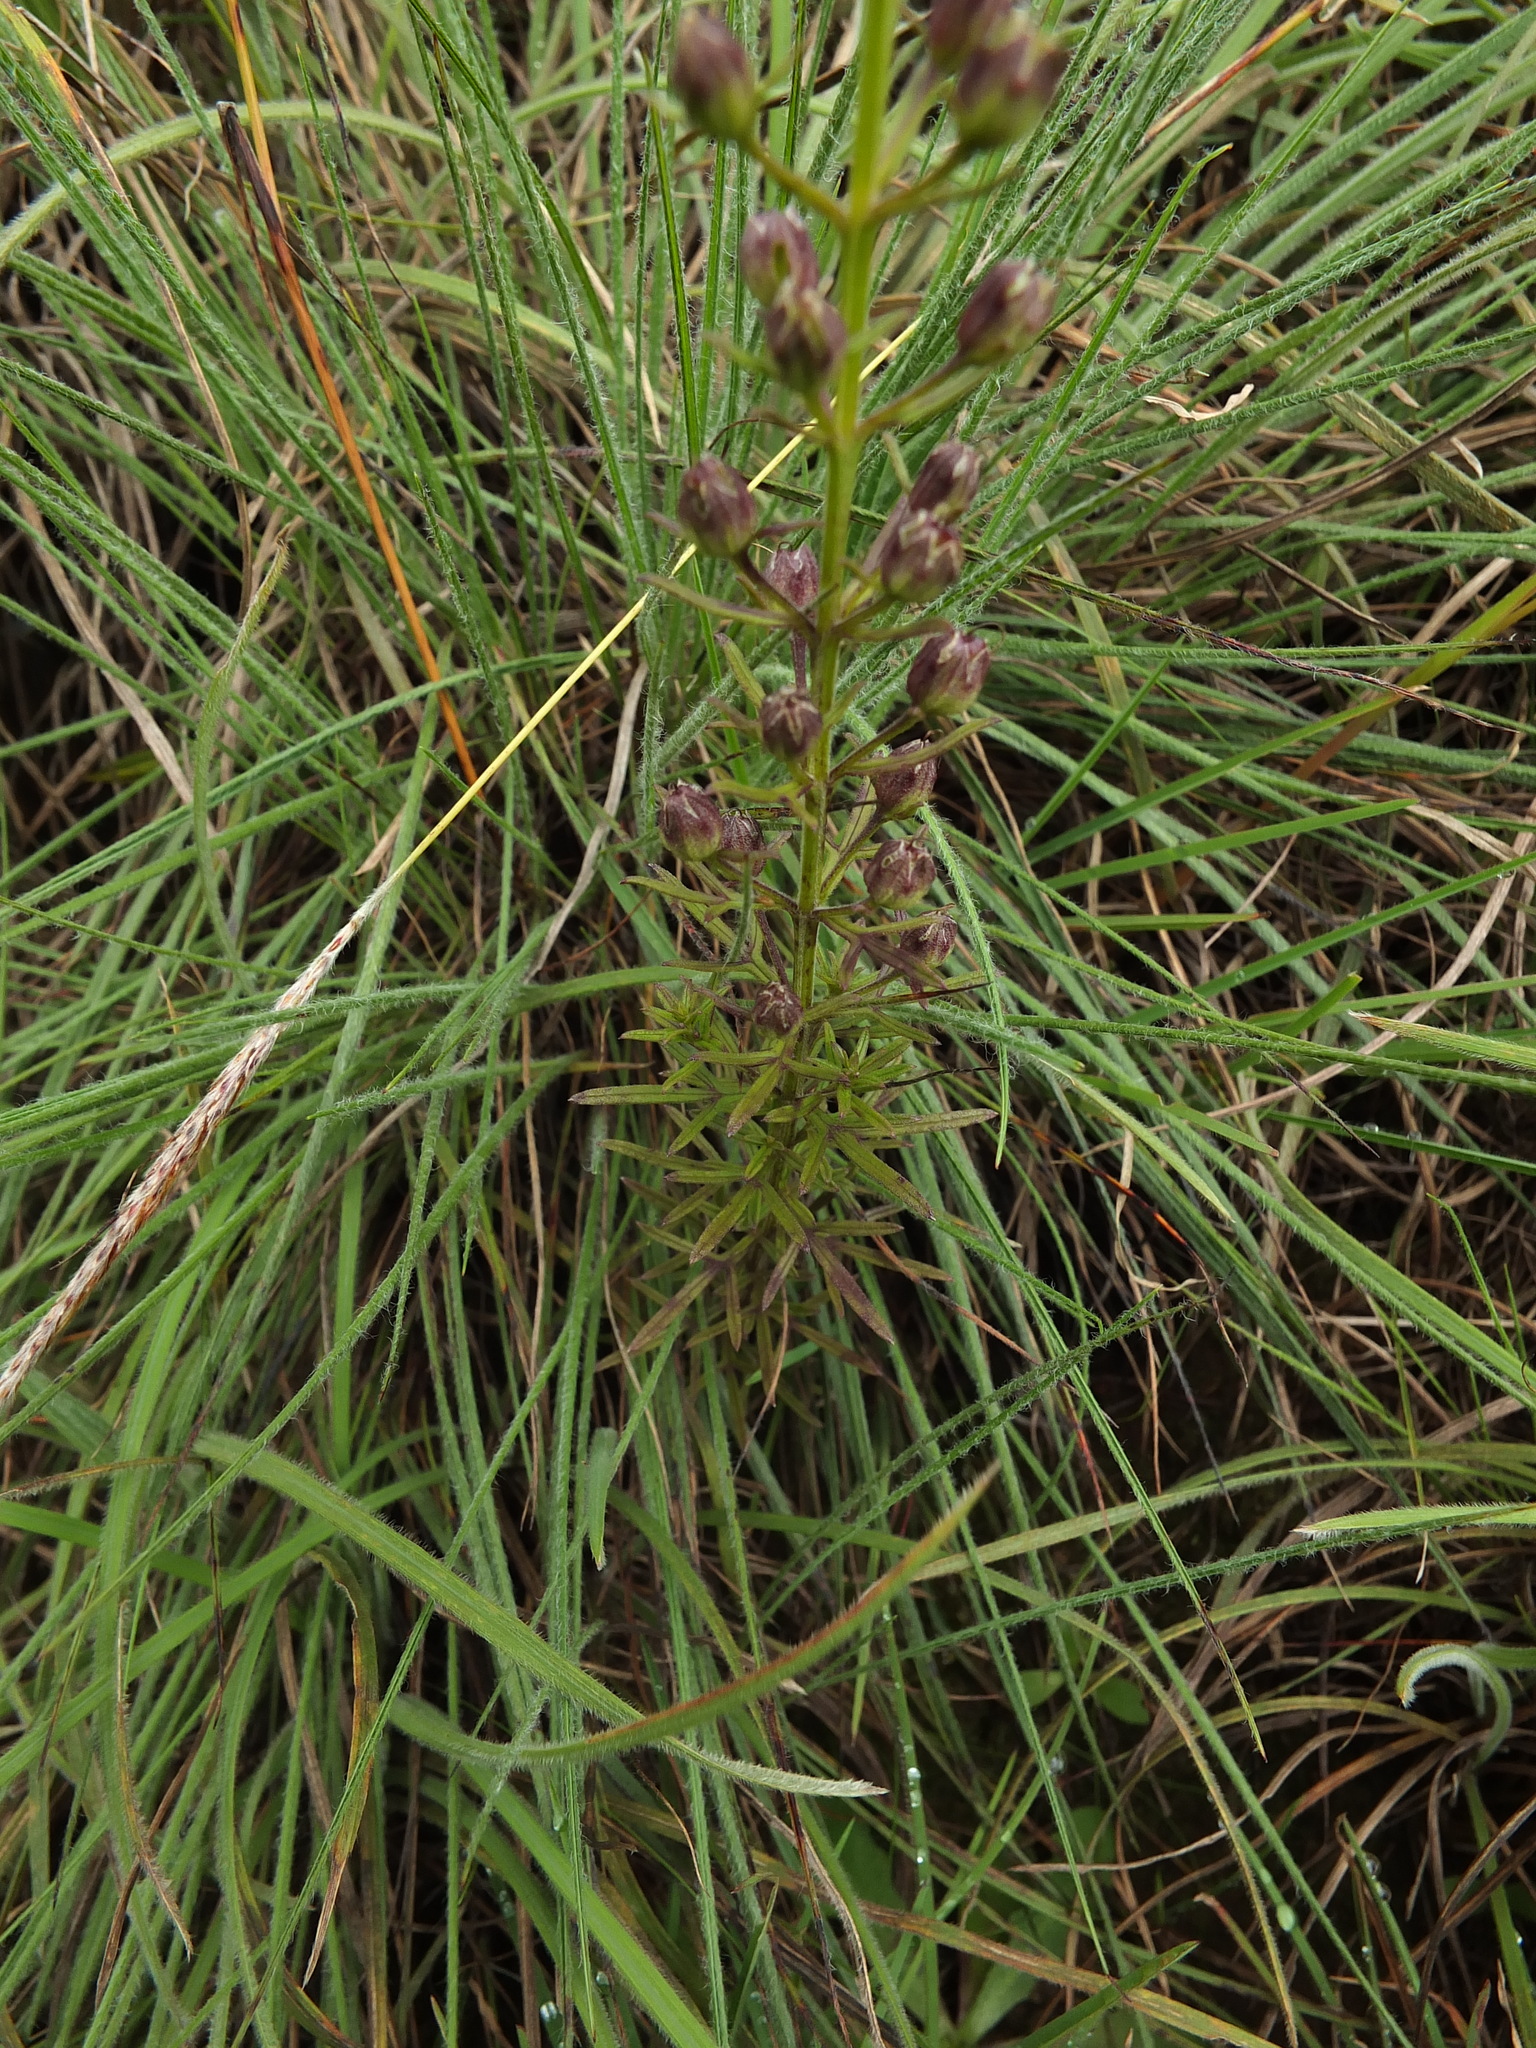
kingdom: Plantae
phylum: Tracheophyta
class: Magnoliopsida
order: Lamiales
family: Orobanchaceae
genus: Sopubia
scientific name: Sopubia trifida
